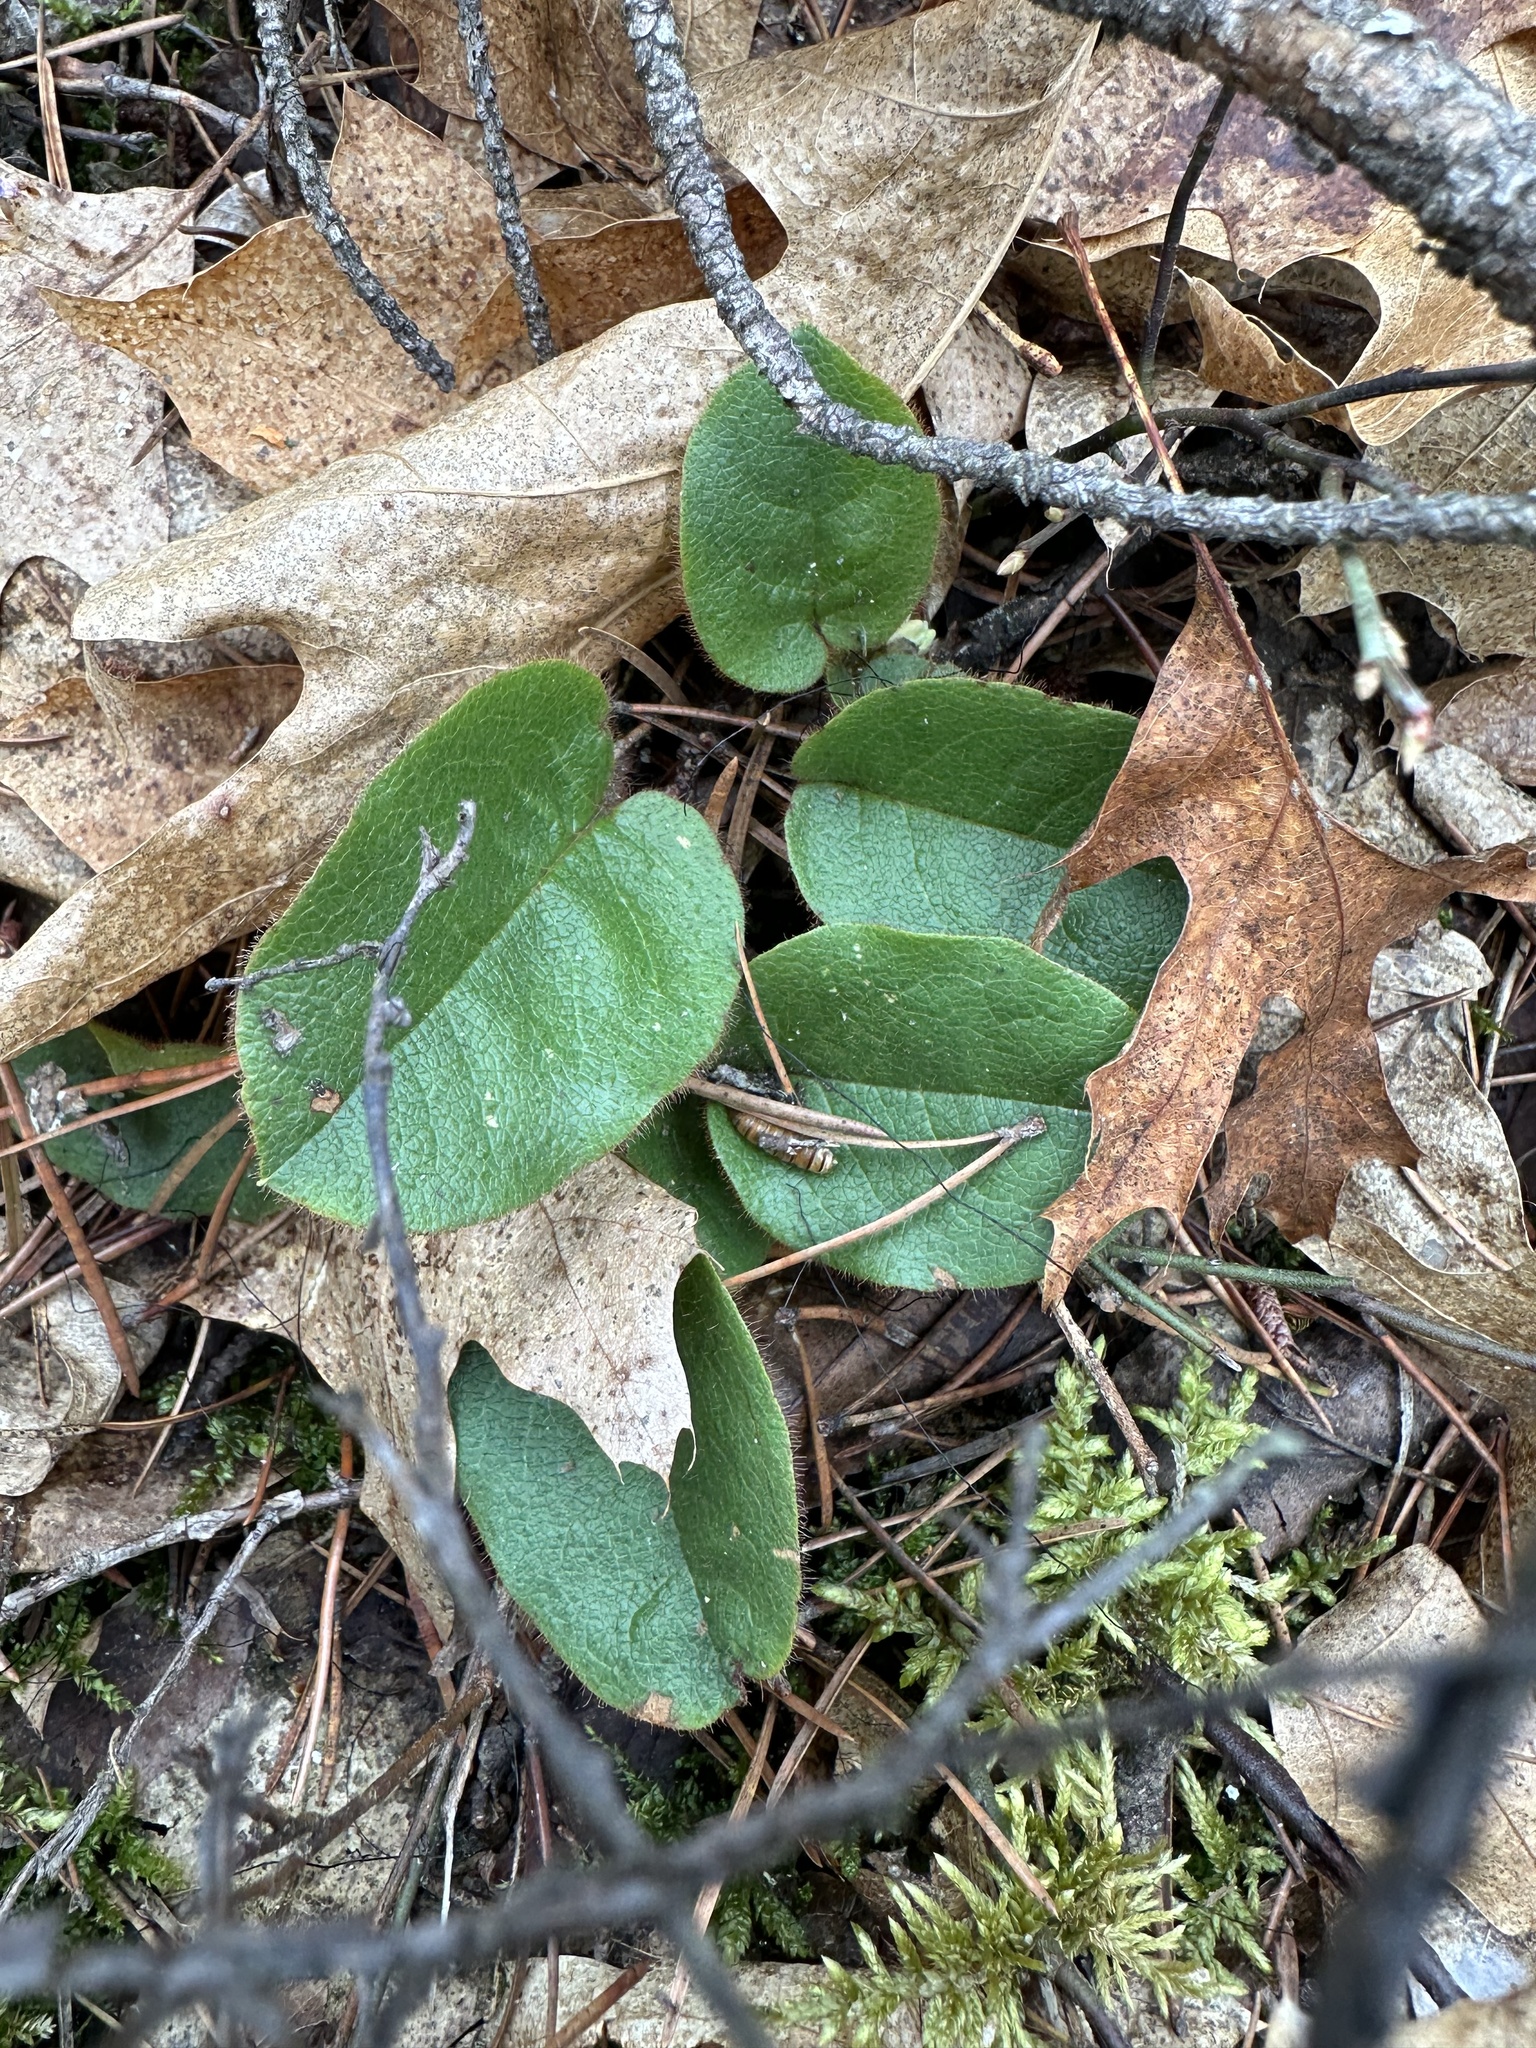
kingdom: Plantae
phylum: Tracheophyta
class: Magnoliopsida
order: Ericales
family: Ericaceae
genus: Epigaea
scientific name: Epigaea repens
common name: Gravelroot
